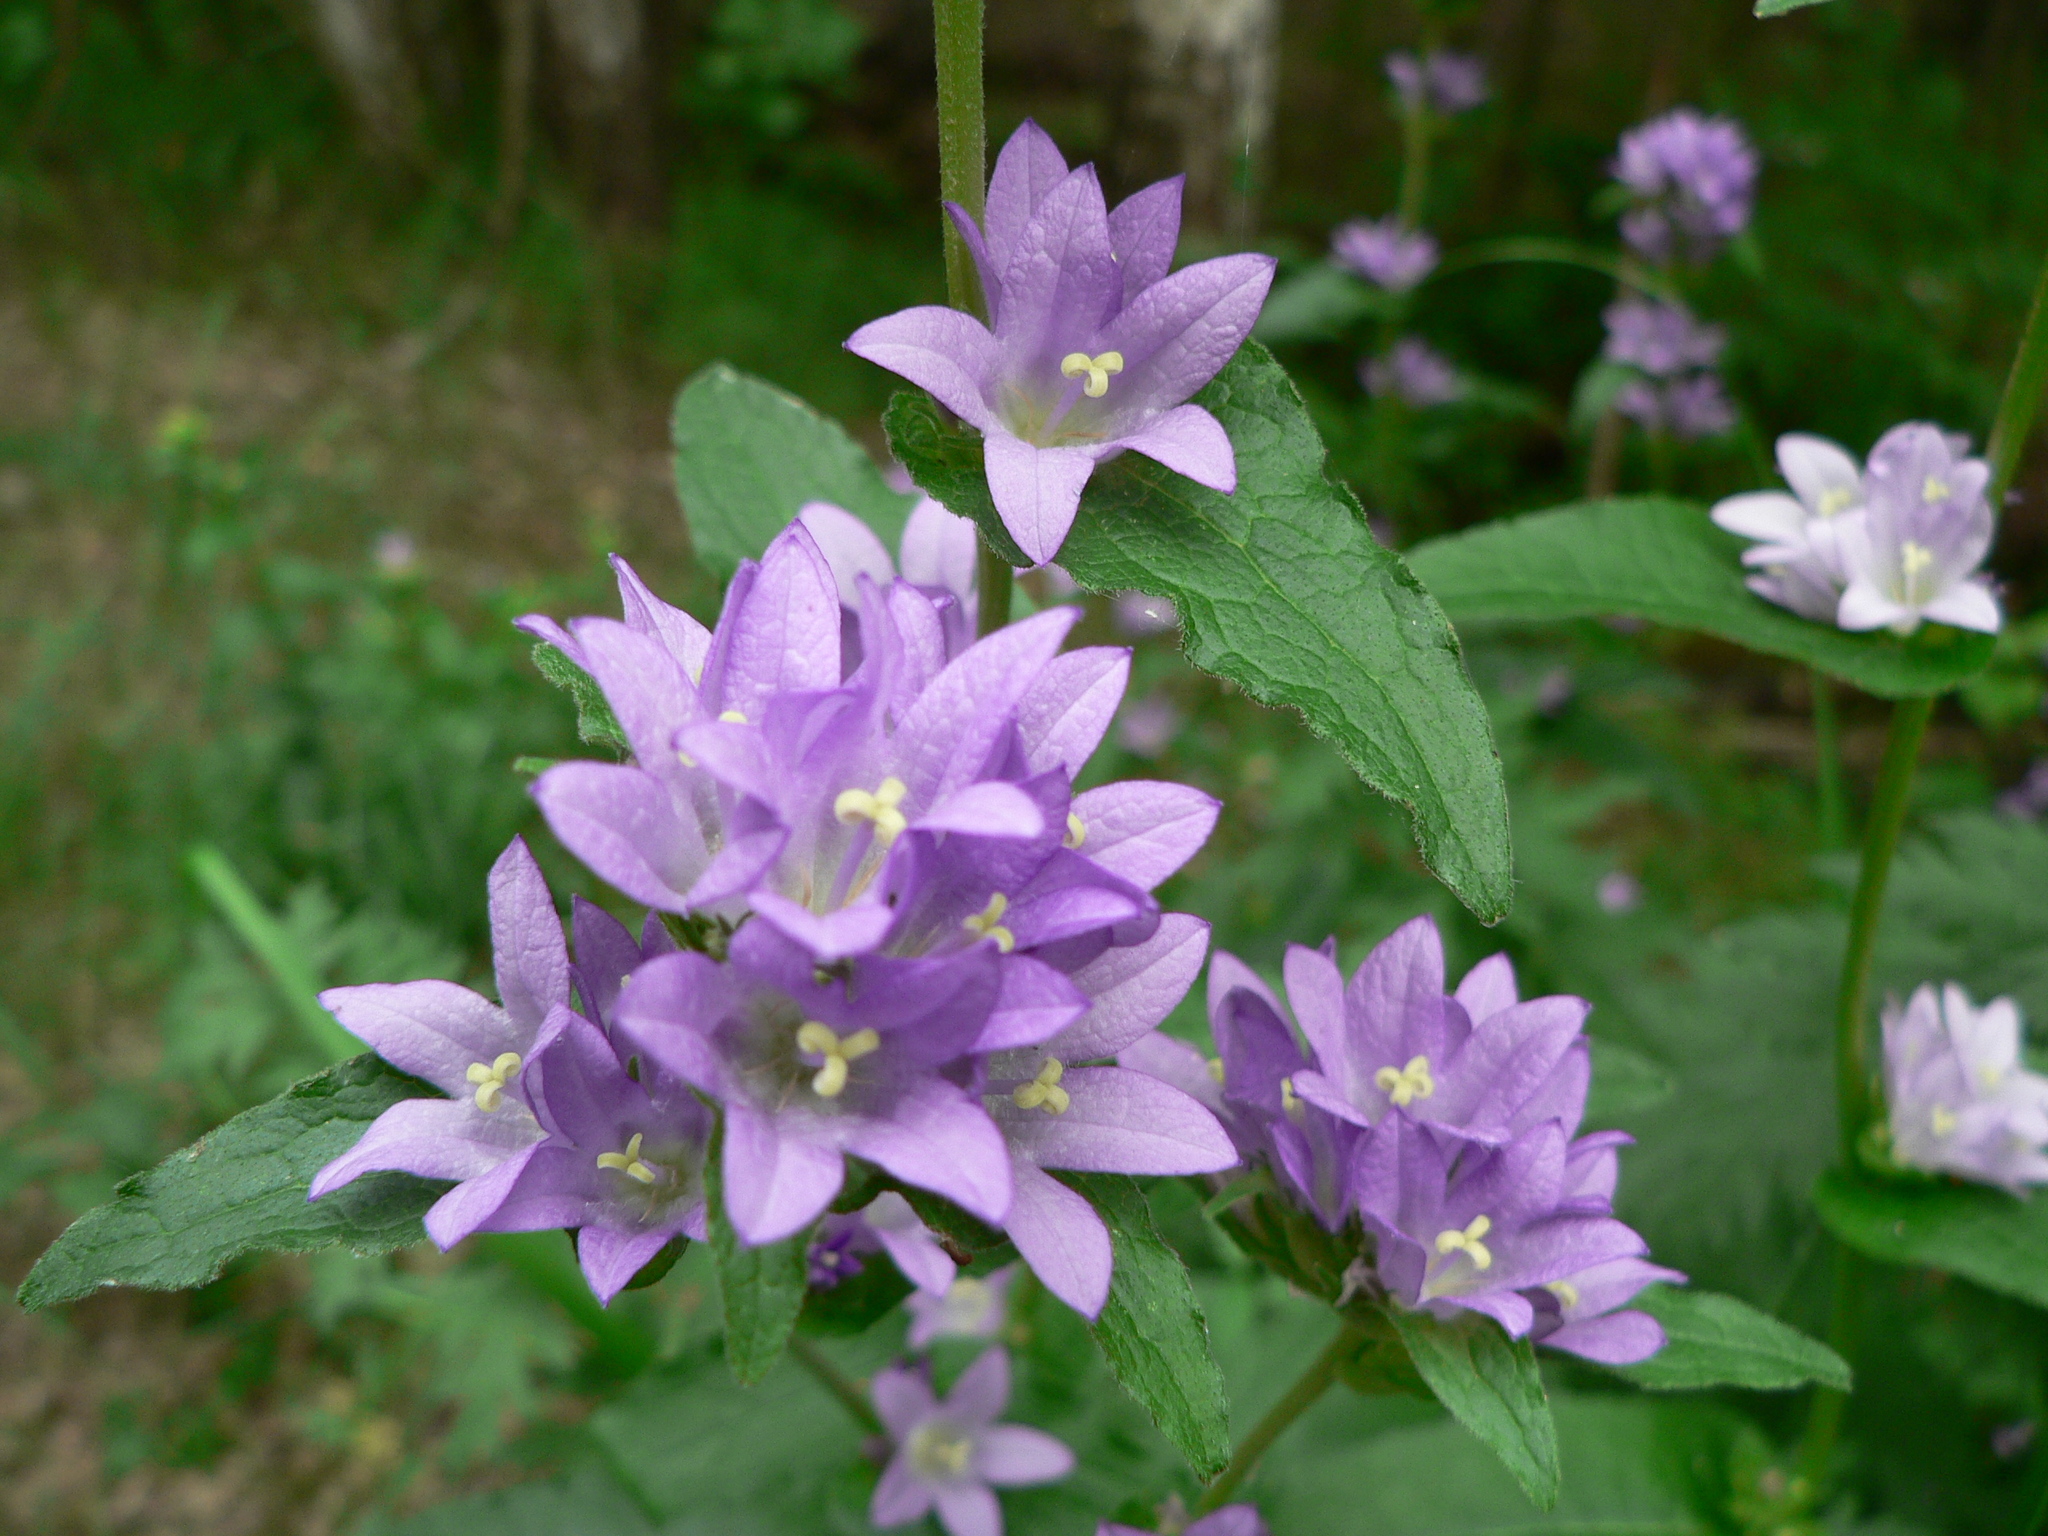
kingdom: Plantae
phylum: Tracheophyta
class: Magnoliopsida
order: Asterales
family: Campanulaceae
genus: Campanula
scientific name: Campanula glomerata
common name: Clustered bellflower
